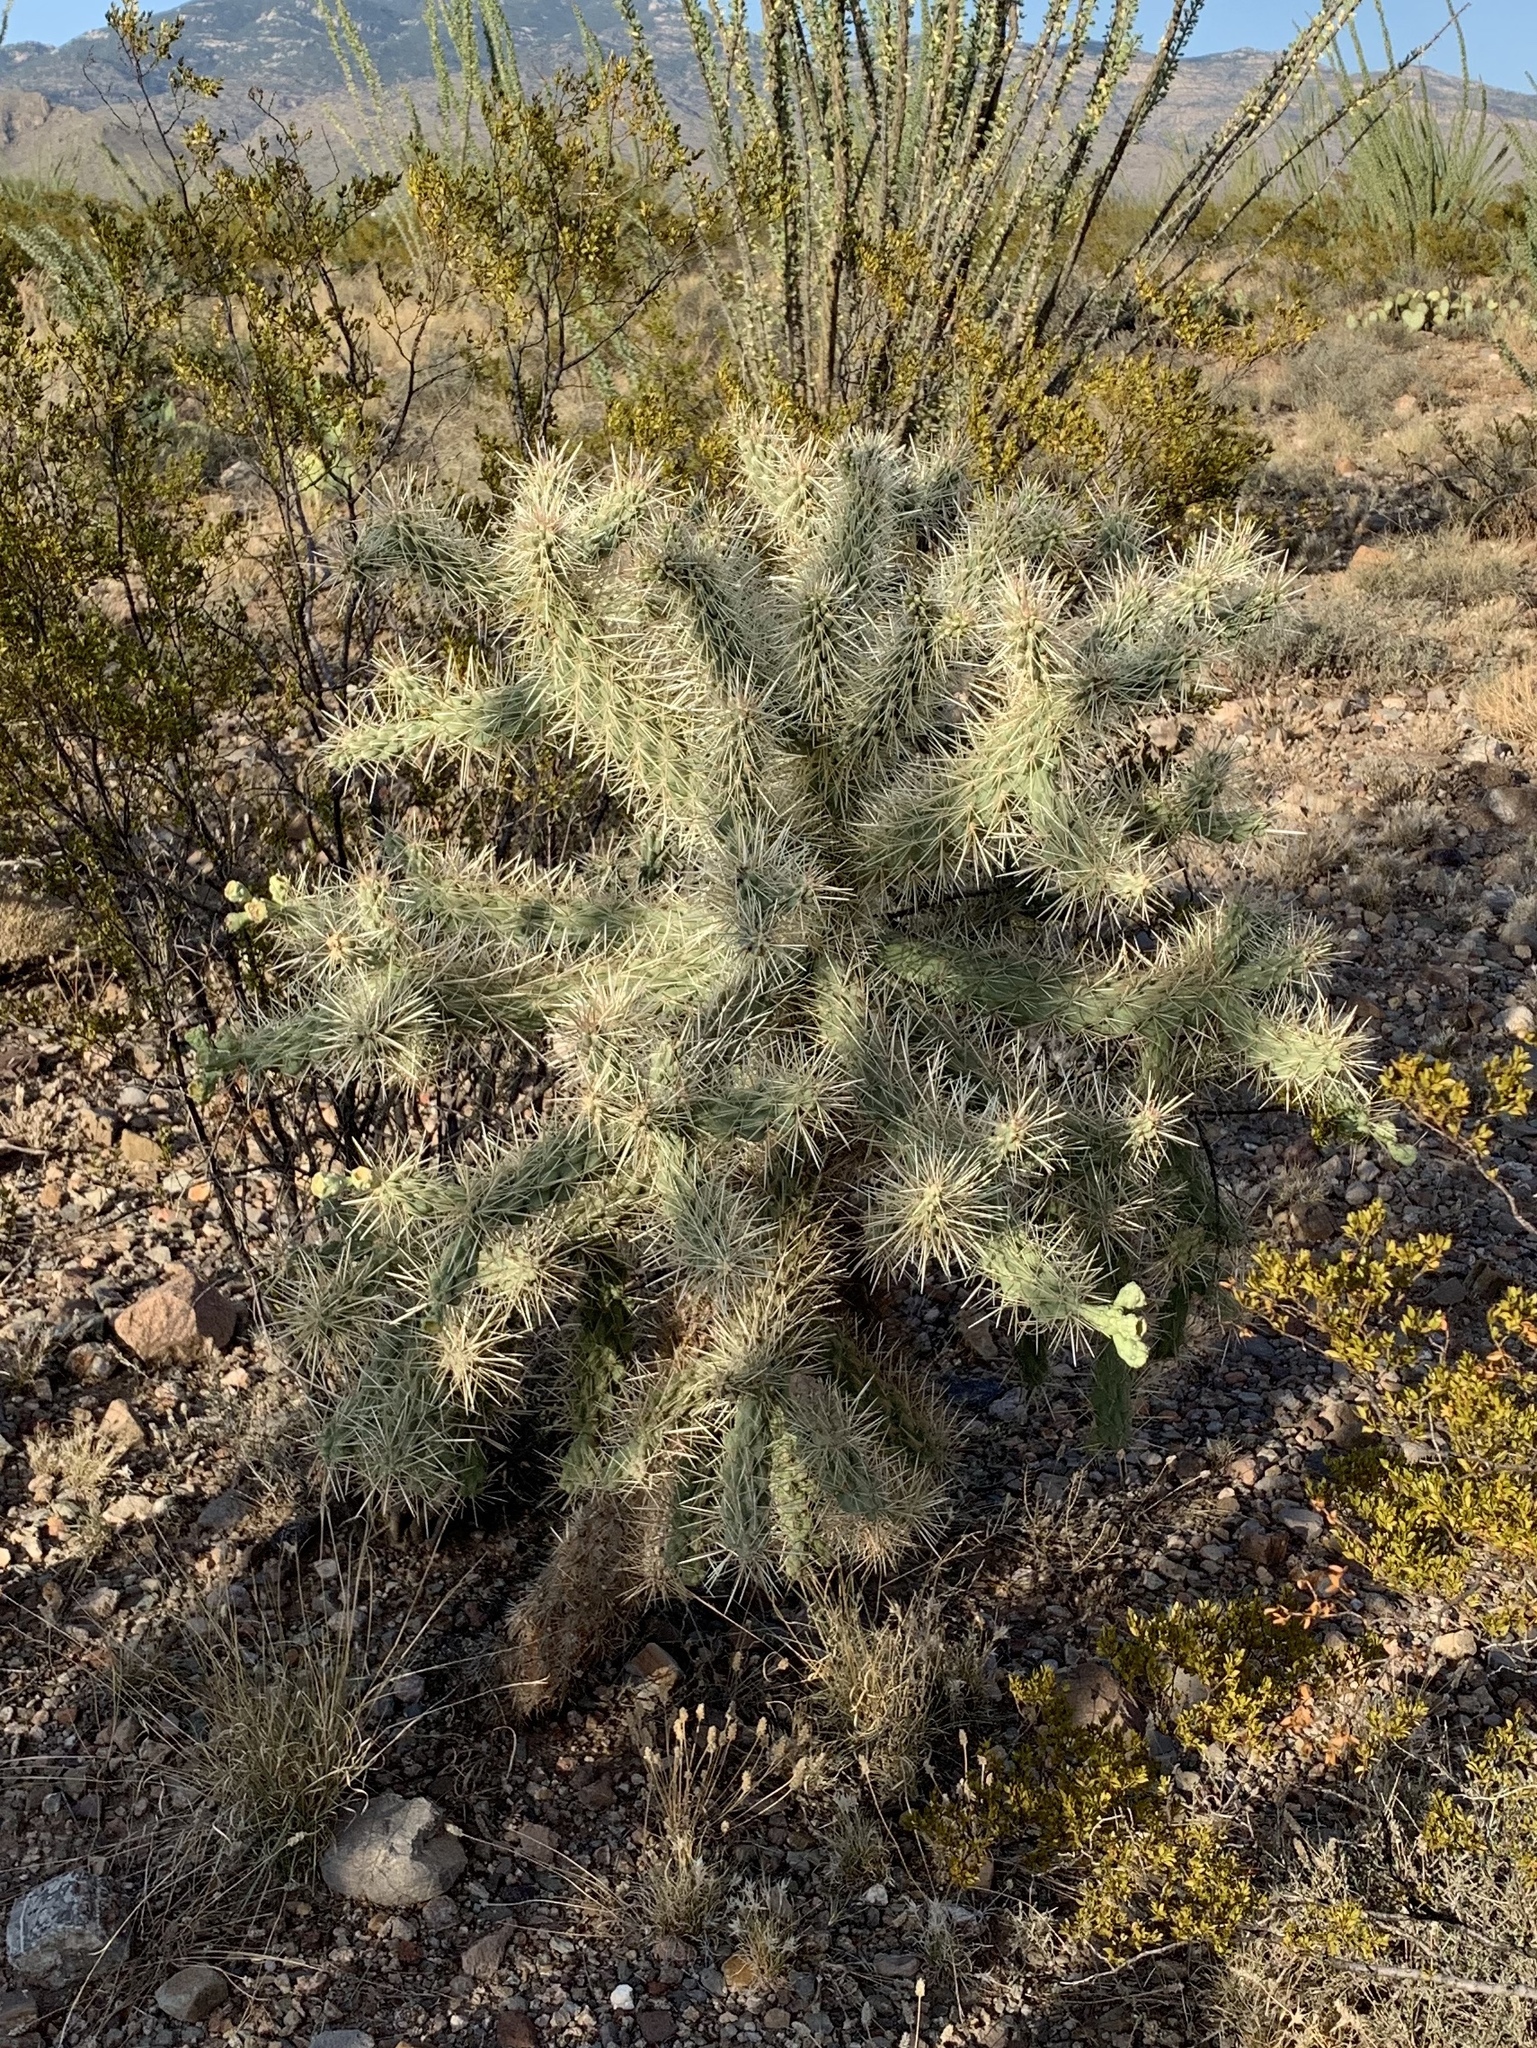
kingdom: Plantae
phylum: Tracheophyta
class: Magnoliopsida
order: Caryophyllales
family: Cactaceae
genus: Cylindropuntia
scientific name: Cylindropuntia fulgida
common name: Jumping cholla
